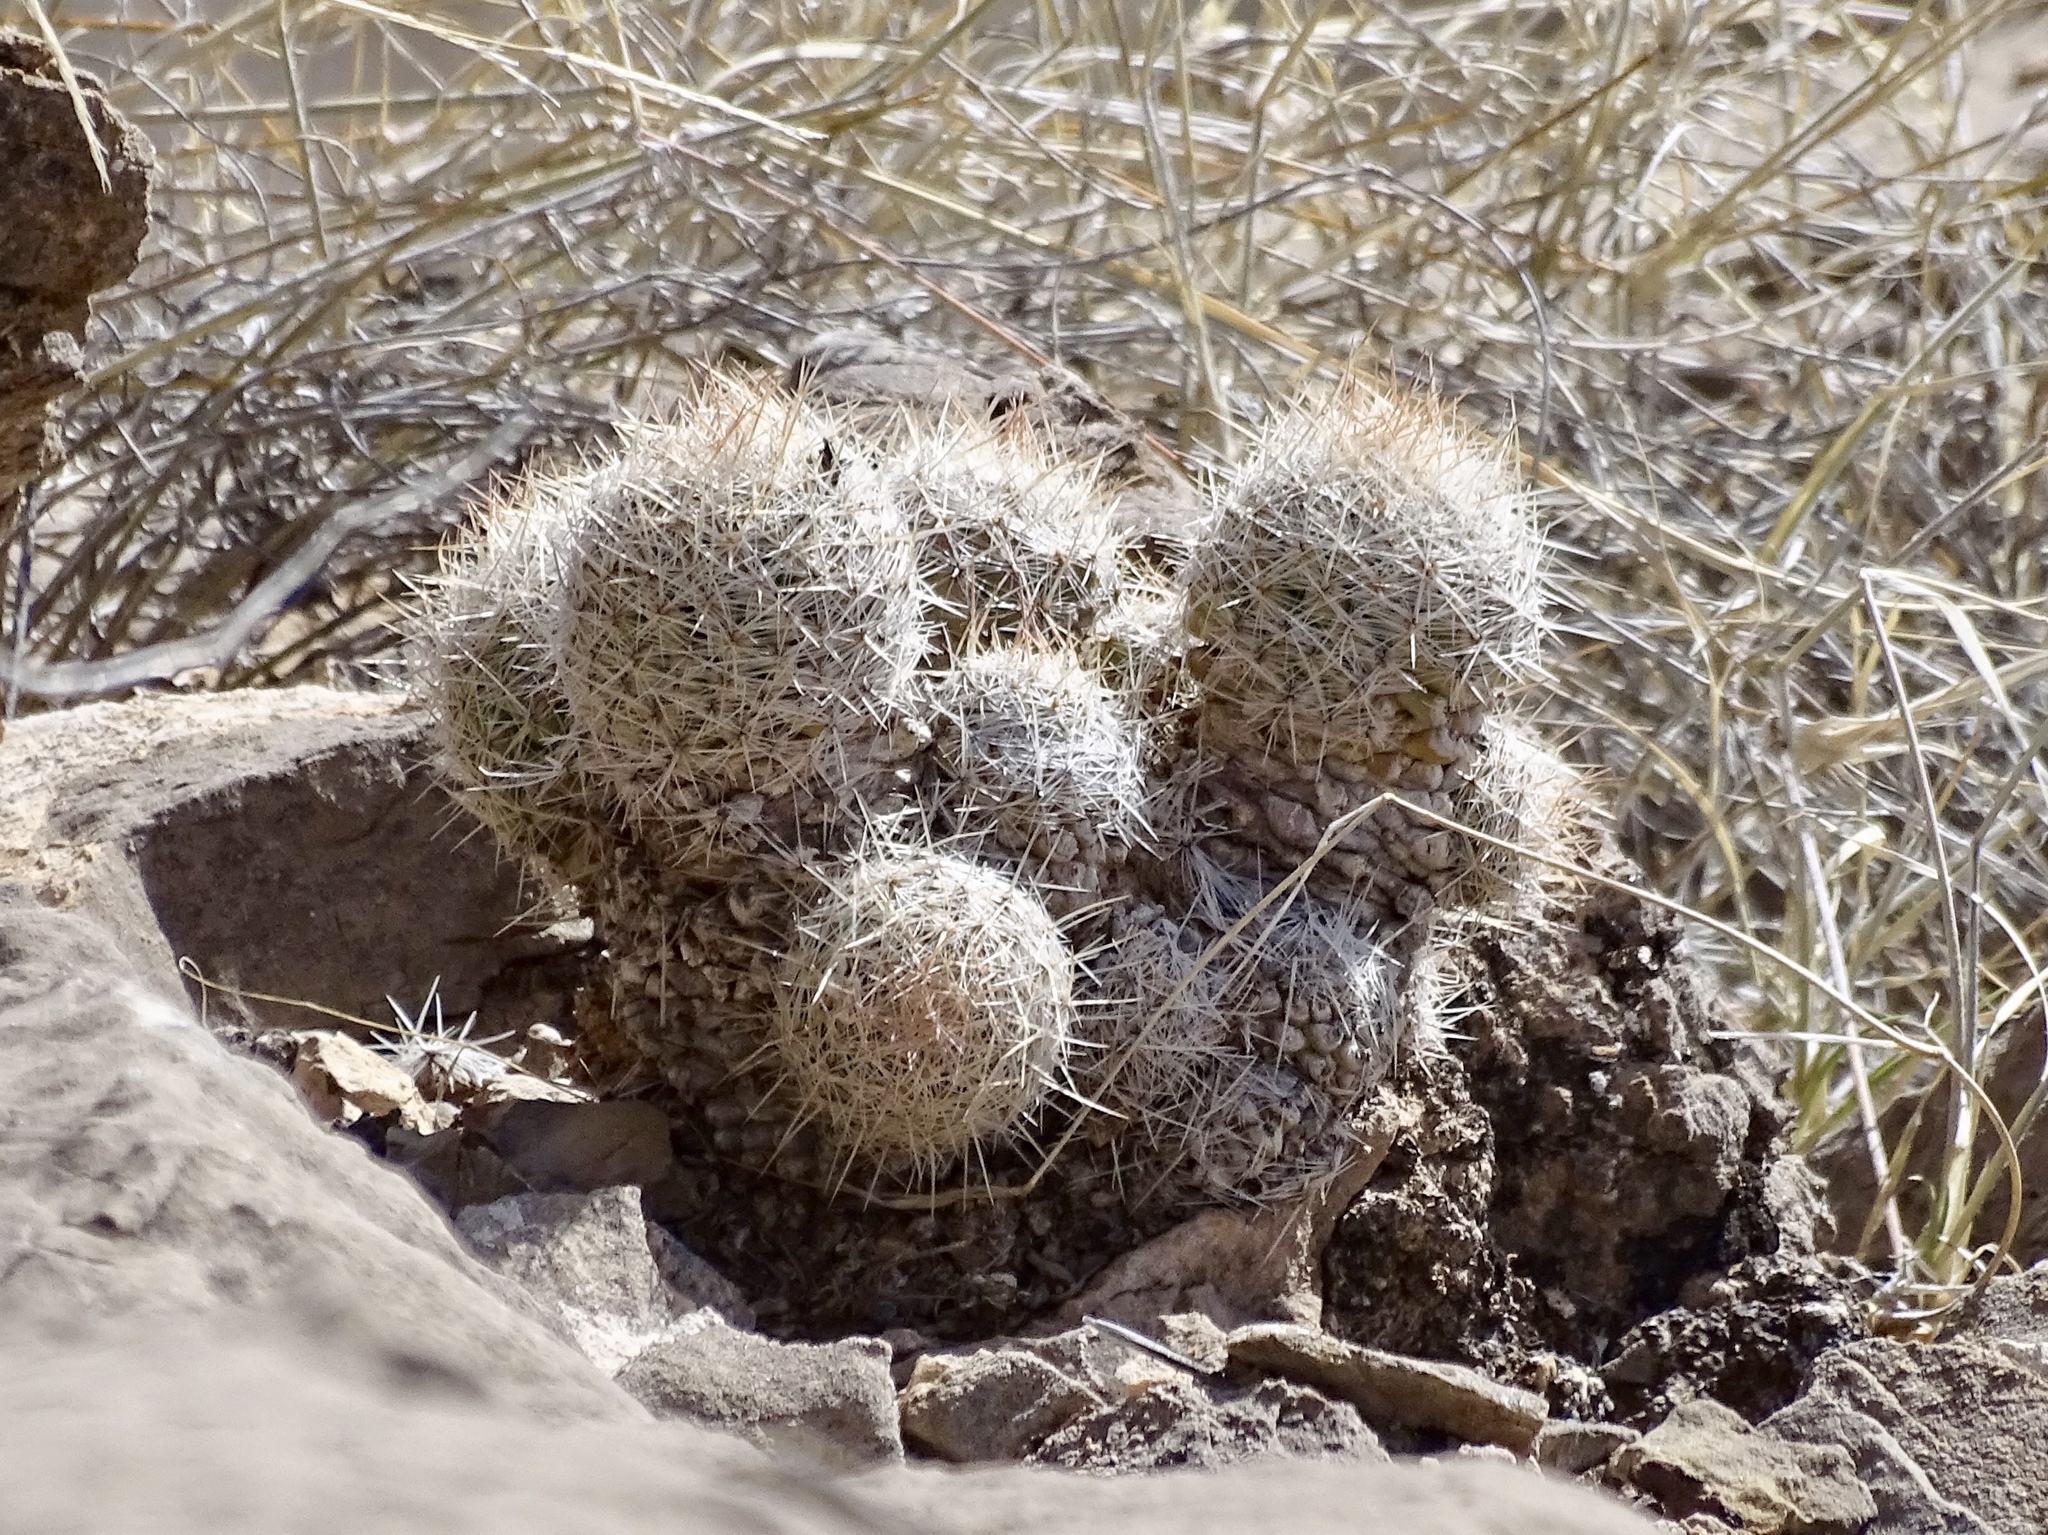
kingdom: Plantae
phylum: Tracheophyta
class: Magnoliopsida
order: Caryophyllales
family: Cactaceae
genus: Pelecyphora
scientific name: Pelecyphora tuberculosa
